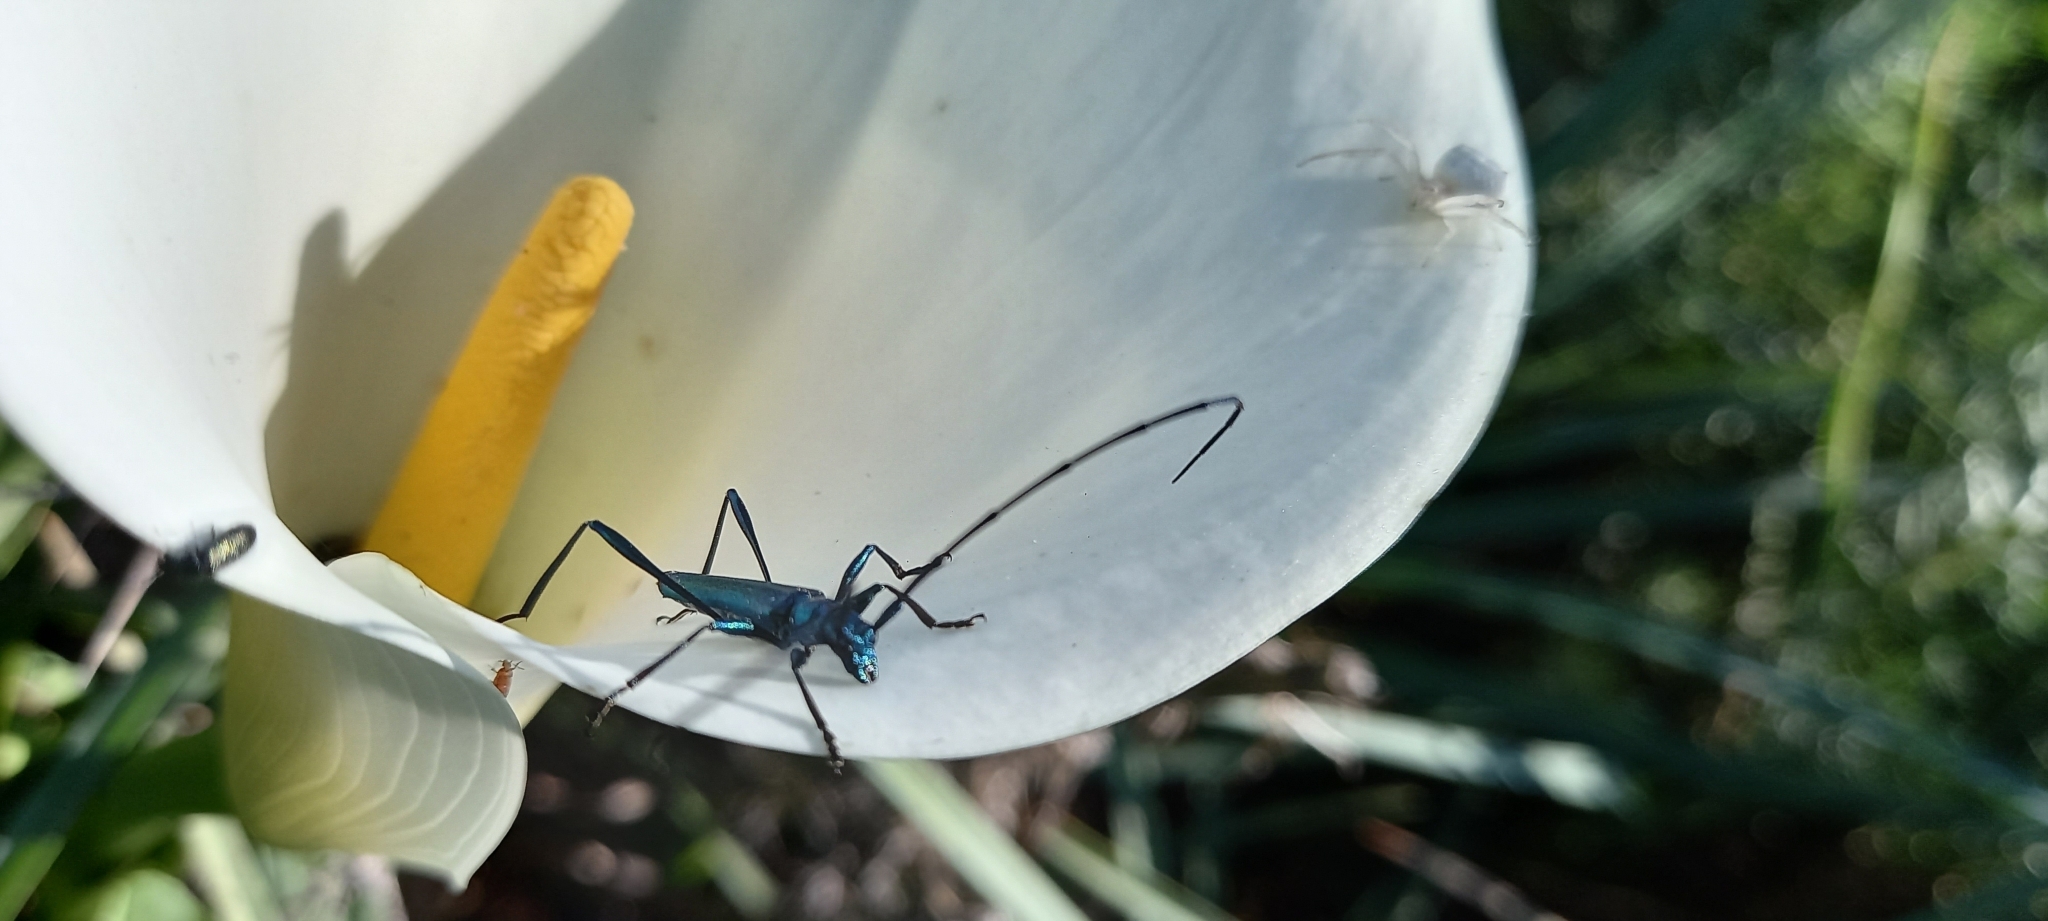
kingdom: Animalia
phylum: Arthropoda
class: Insecta
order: Coleoptera
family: Cerambycidae
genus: Promeces
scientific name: Promeces longipes
